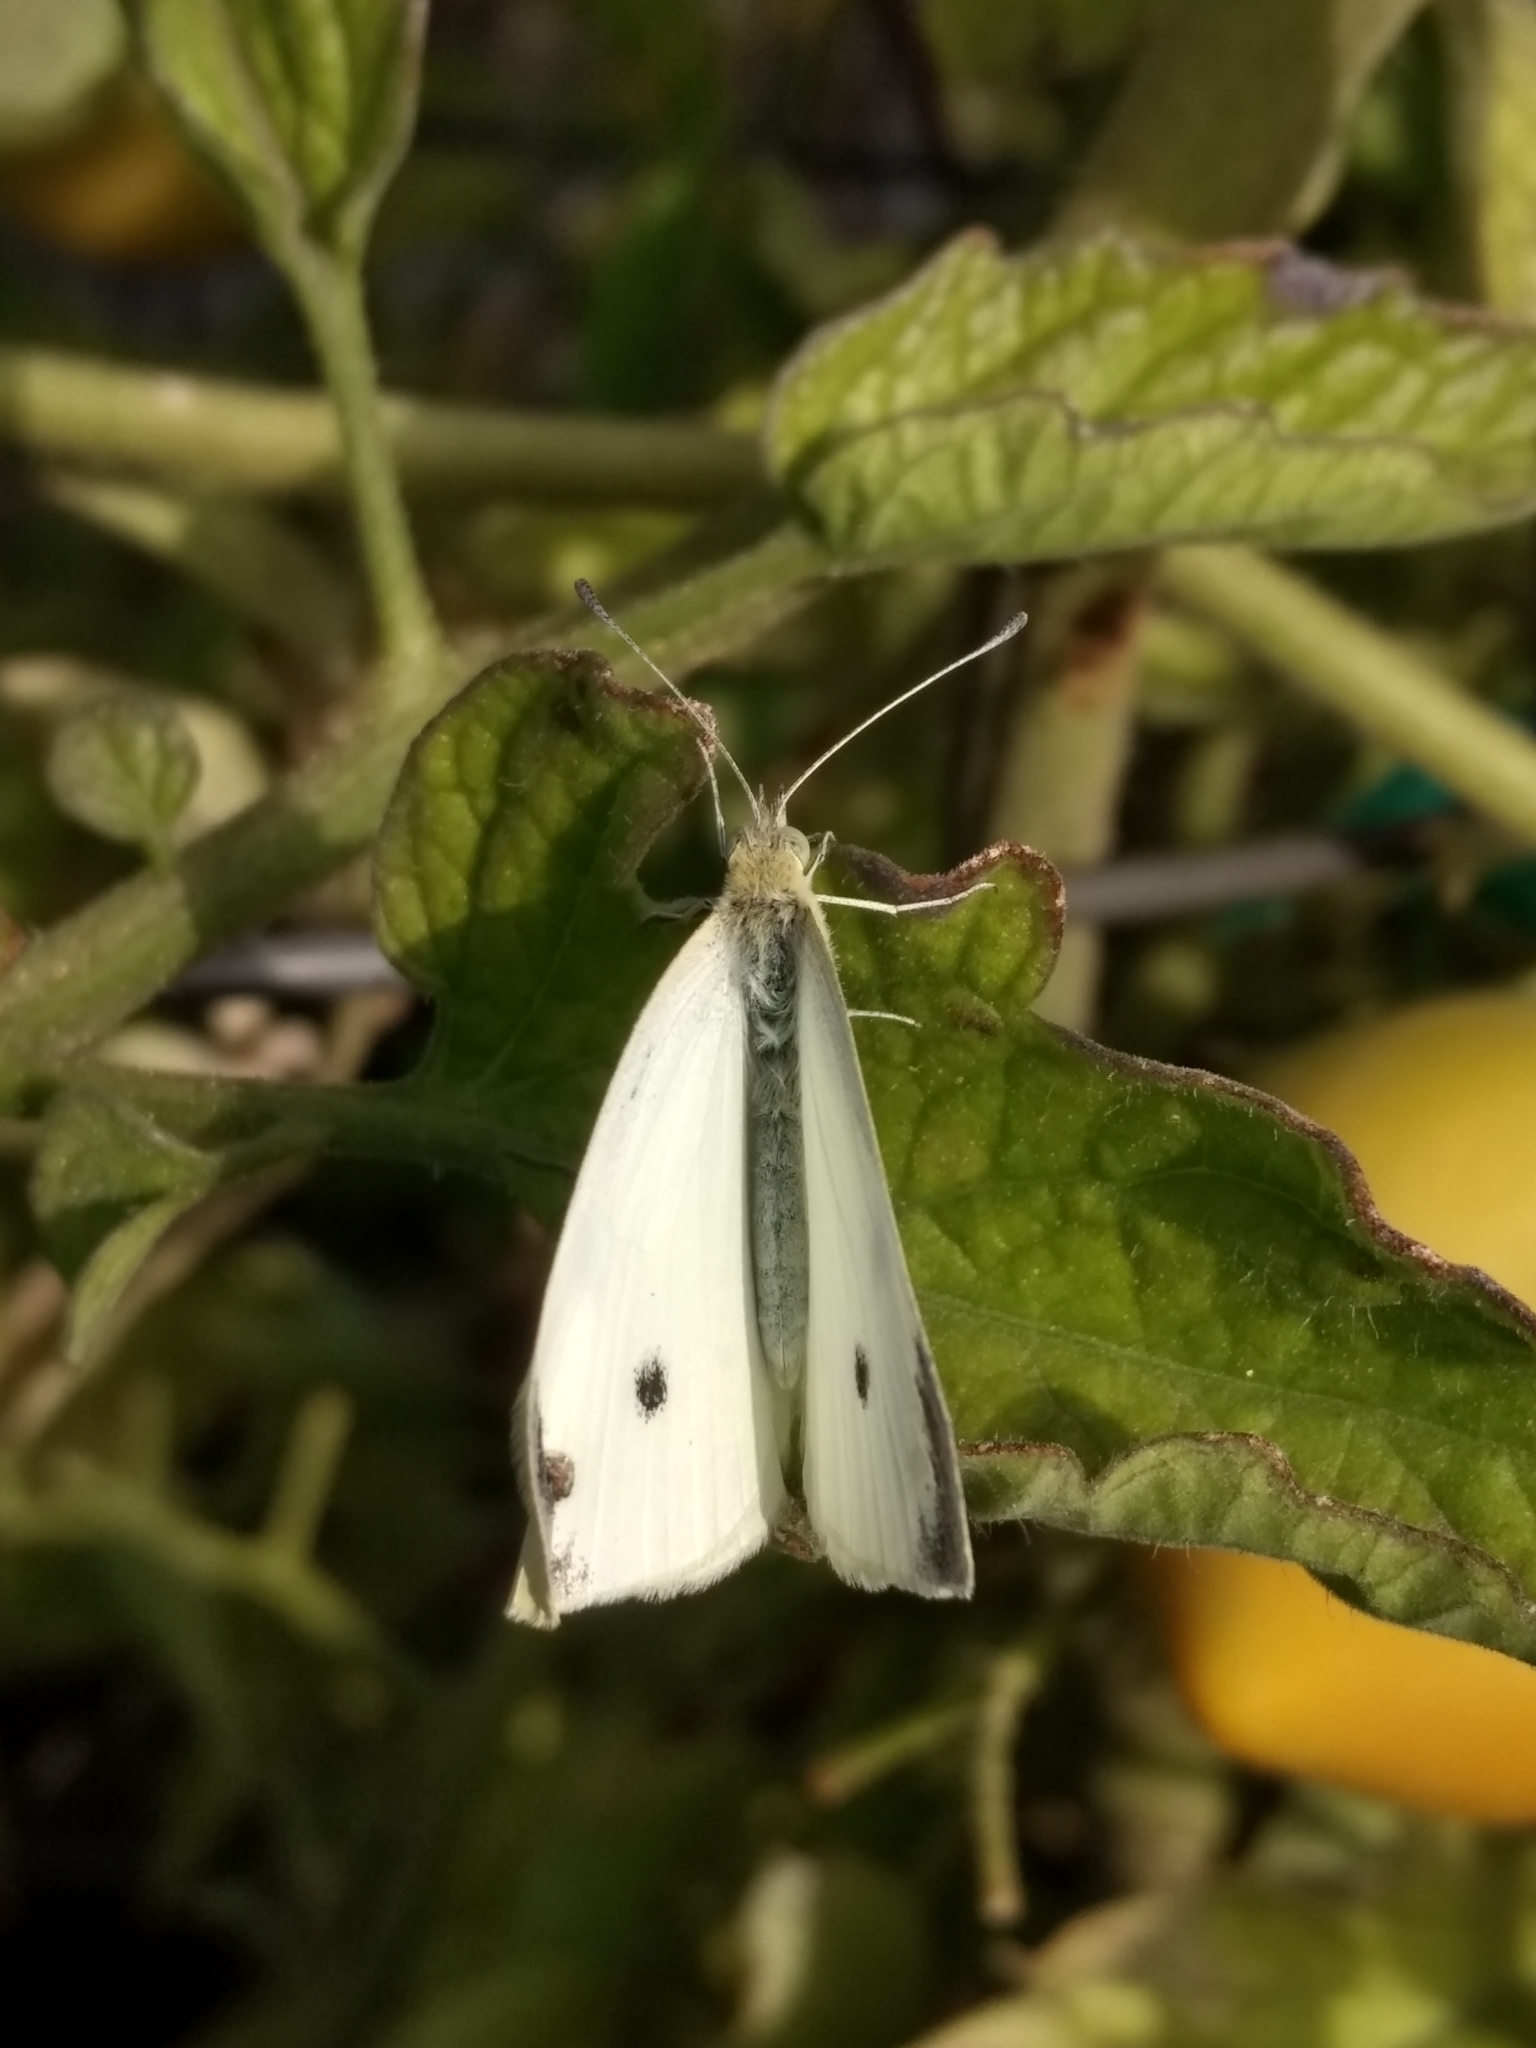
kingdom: Animalia
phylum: Arthropoda
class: Insecta
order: Lepidoptera
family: Pieridae
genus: Pieris
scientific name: Pieris rapae
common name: Small white
